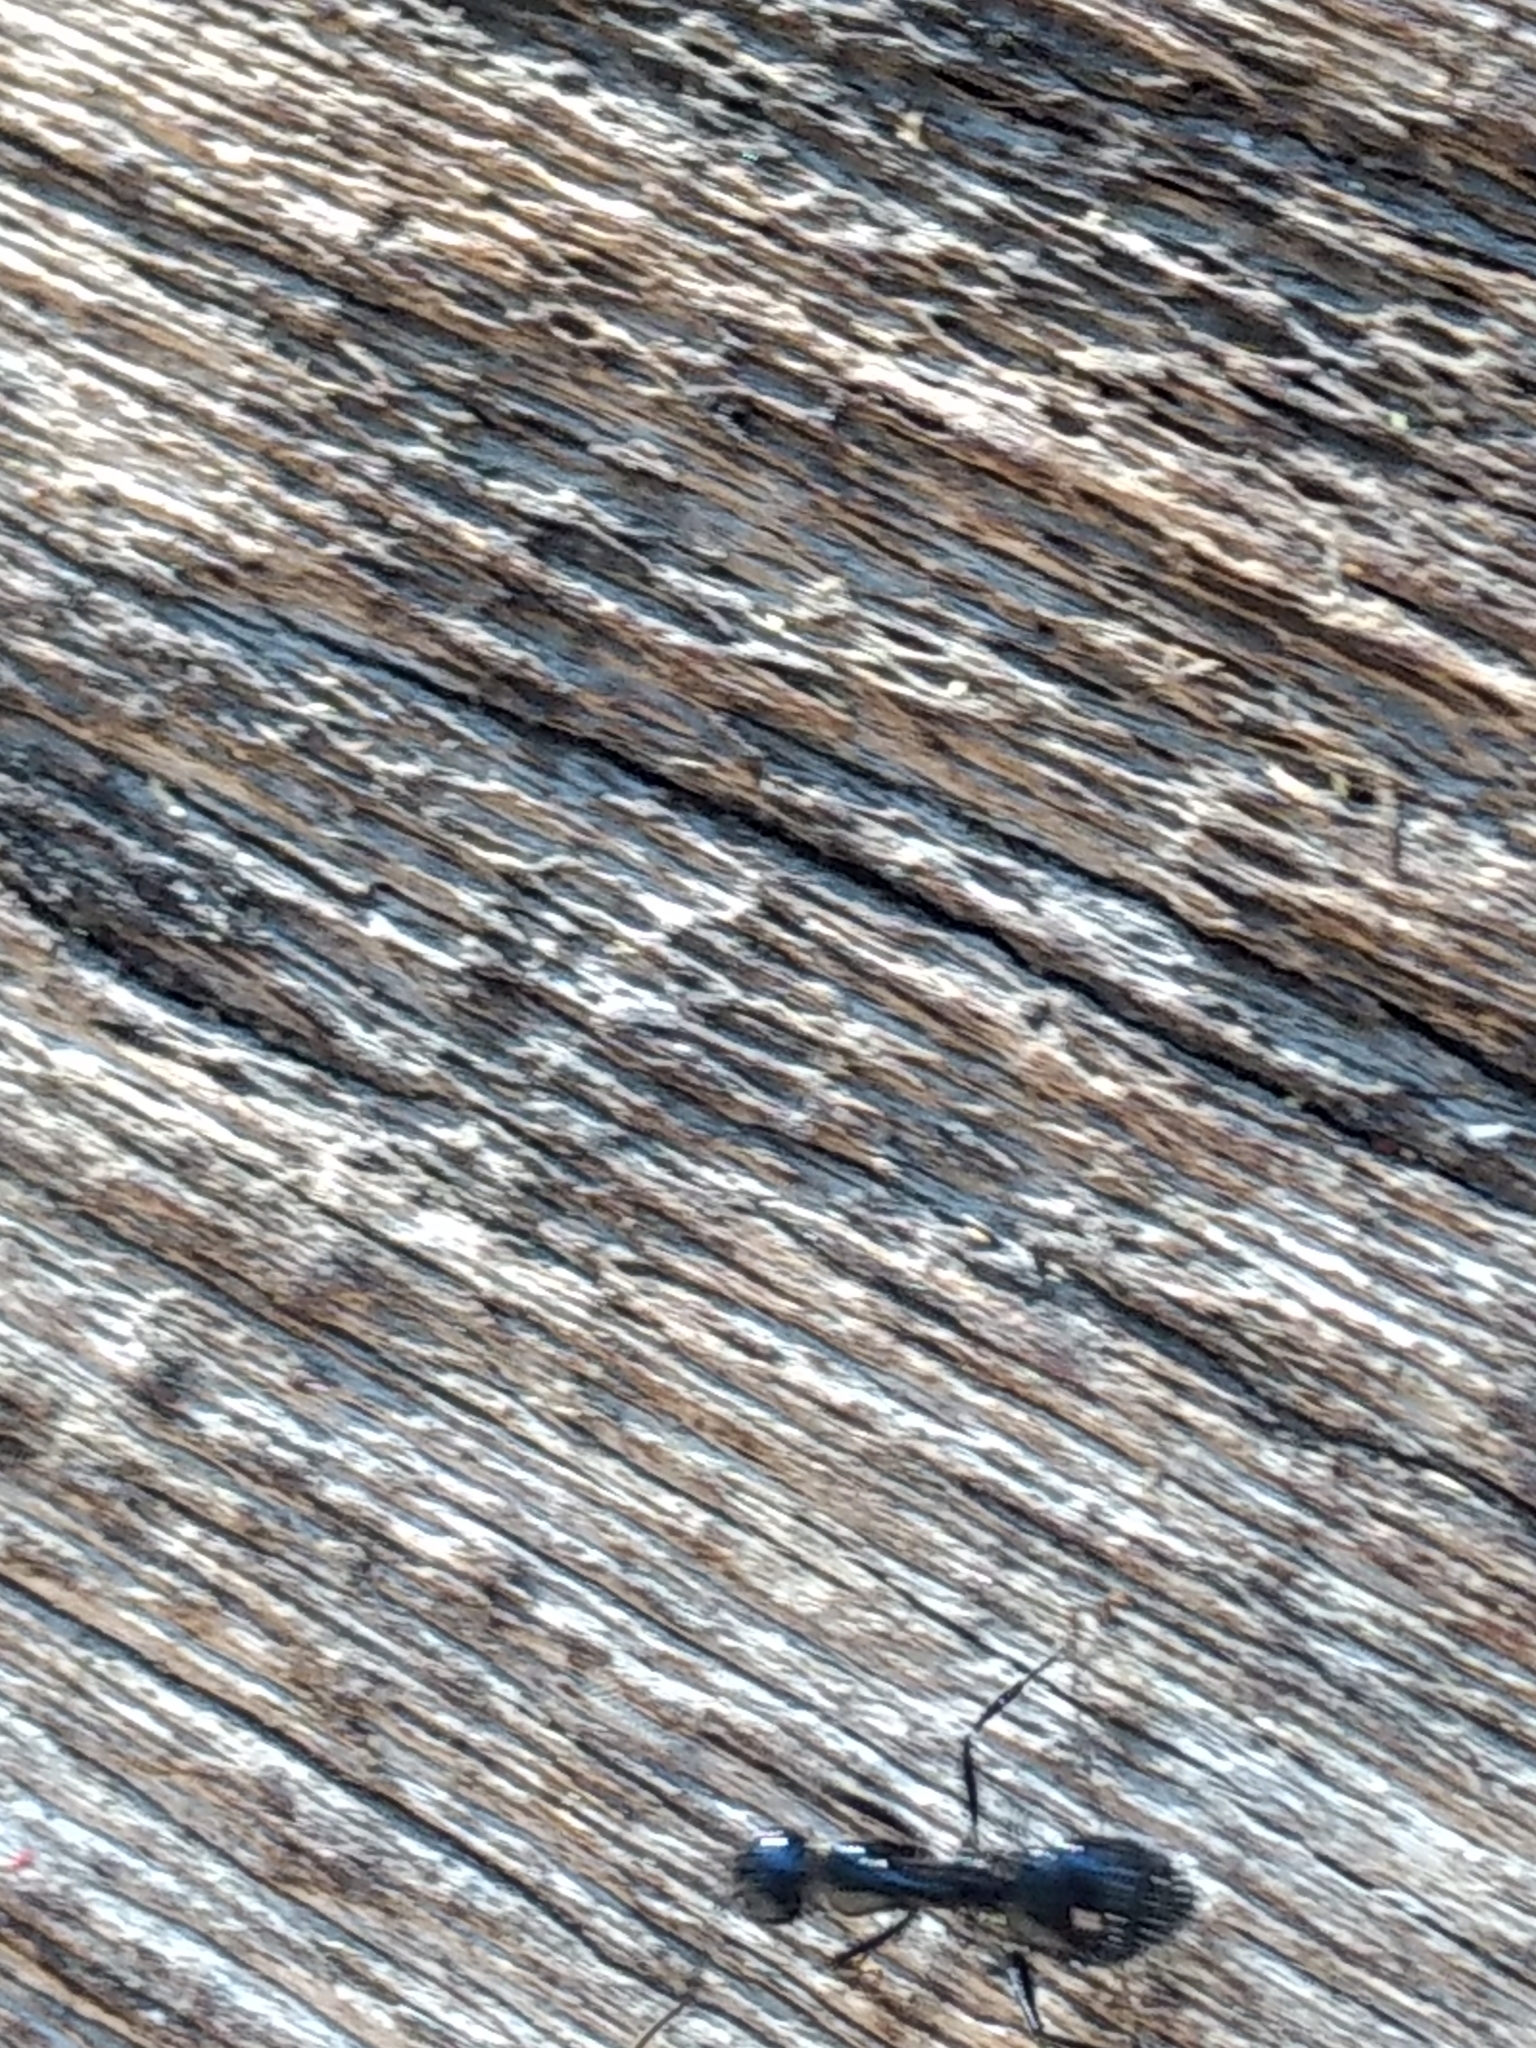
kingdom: Animalia
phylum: Arthropoda
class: Insecta
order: Hymenoptera
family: Formicidae
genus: Camponotus
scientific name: Camponotus
